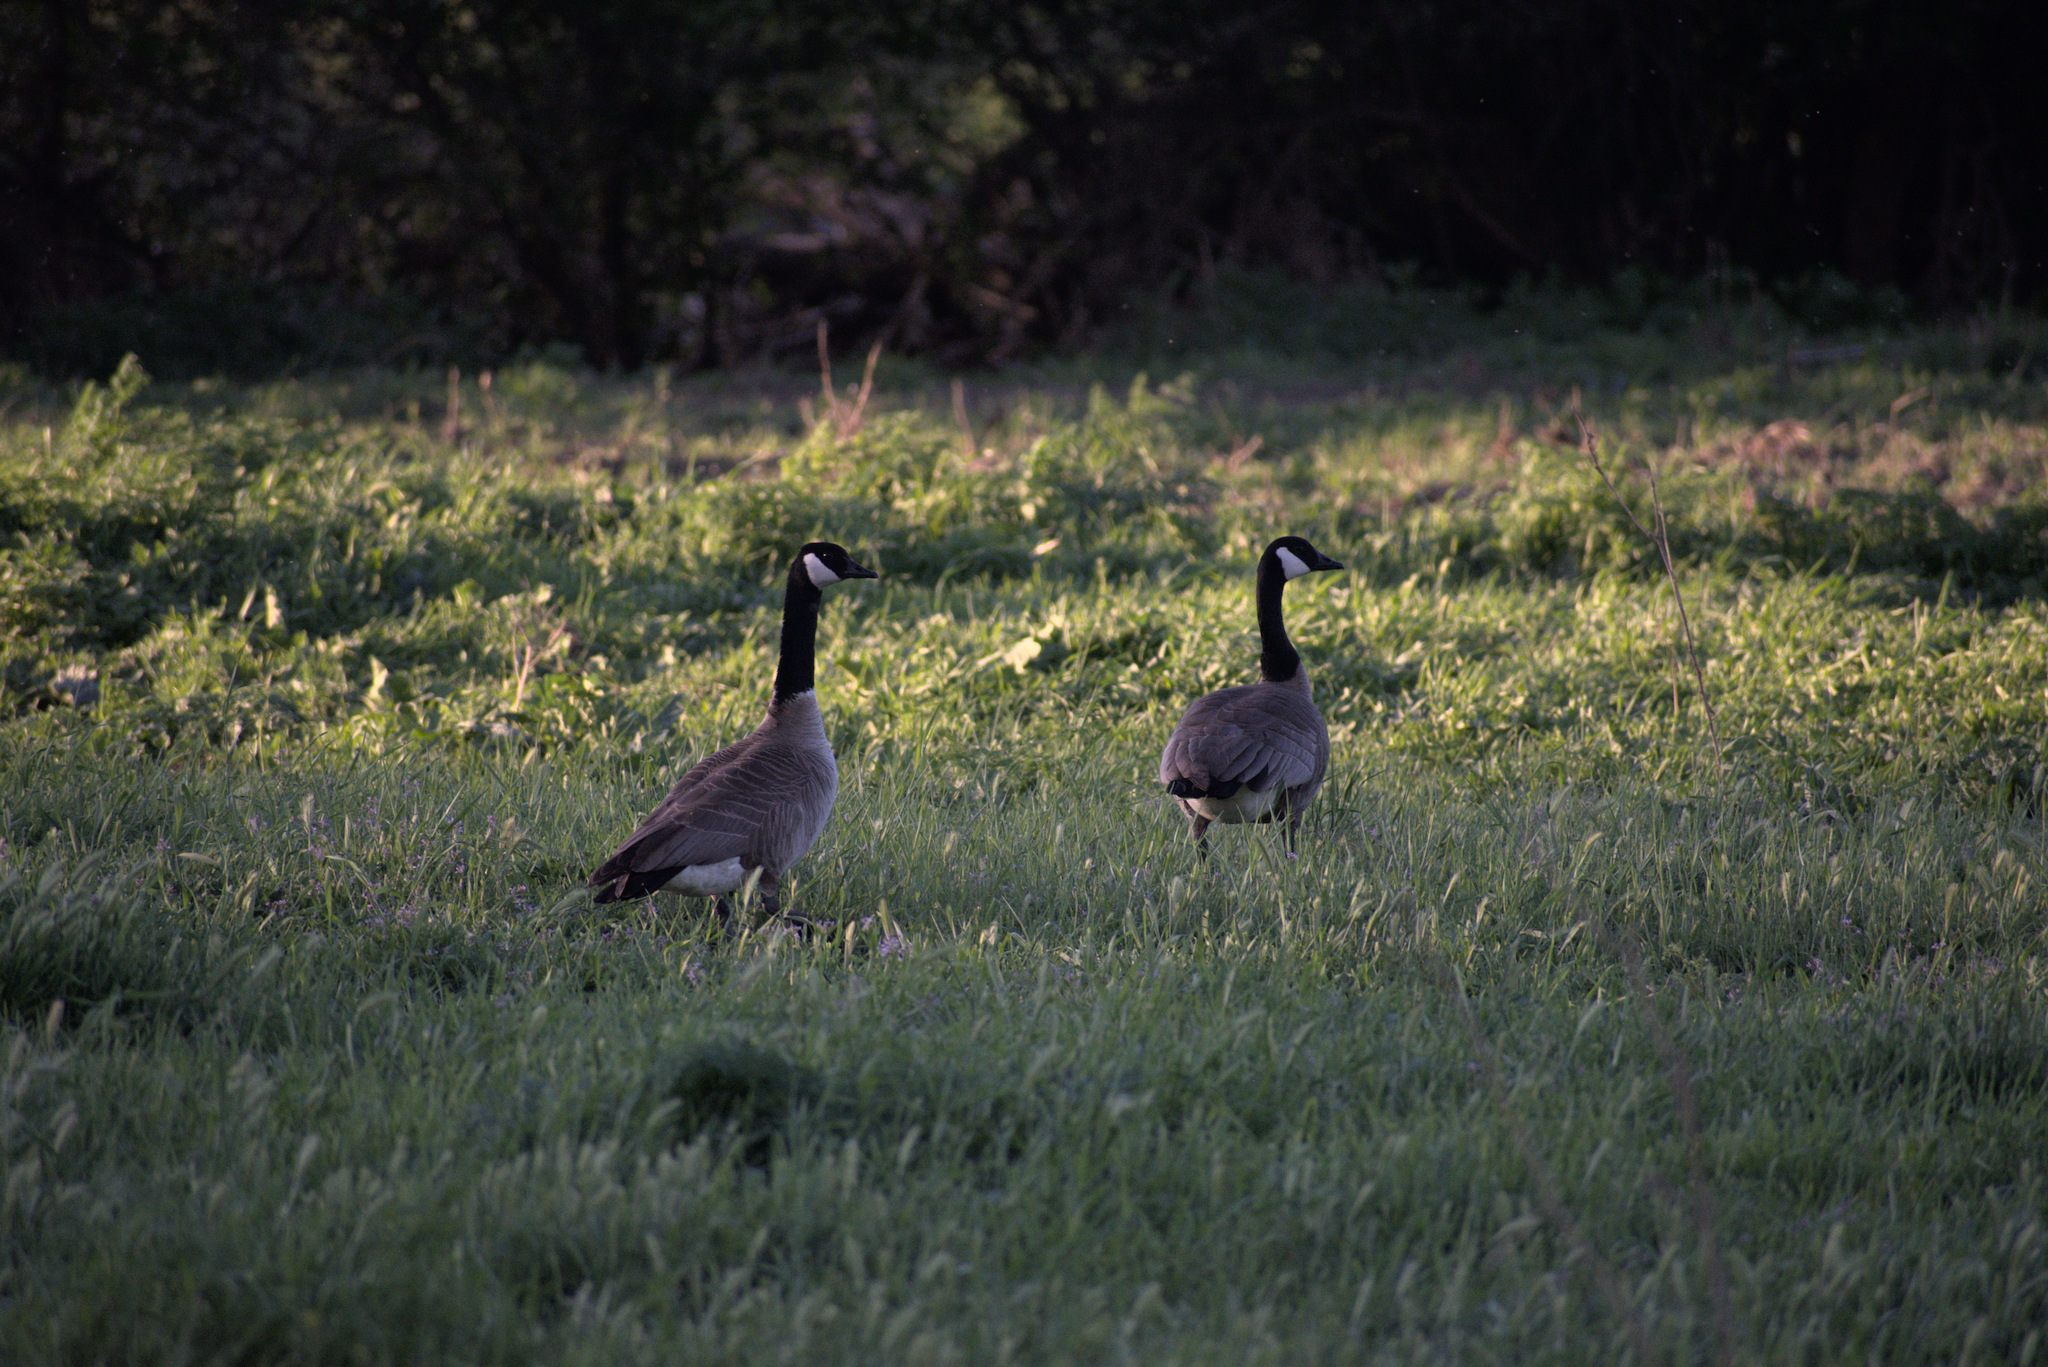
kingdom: Animalia
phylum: Chordata
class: Aves
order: Anseriformes
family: Anatidae
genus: Branta
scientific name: Branta canadensis
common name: Canada goose
